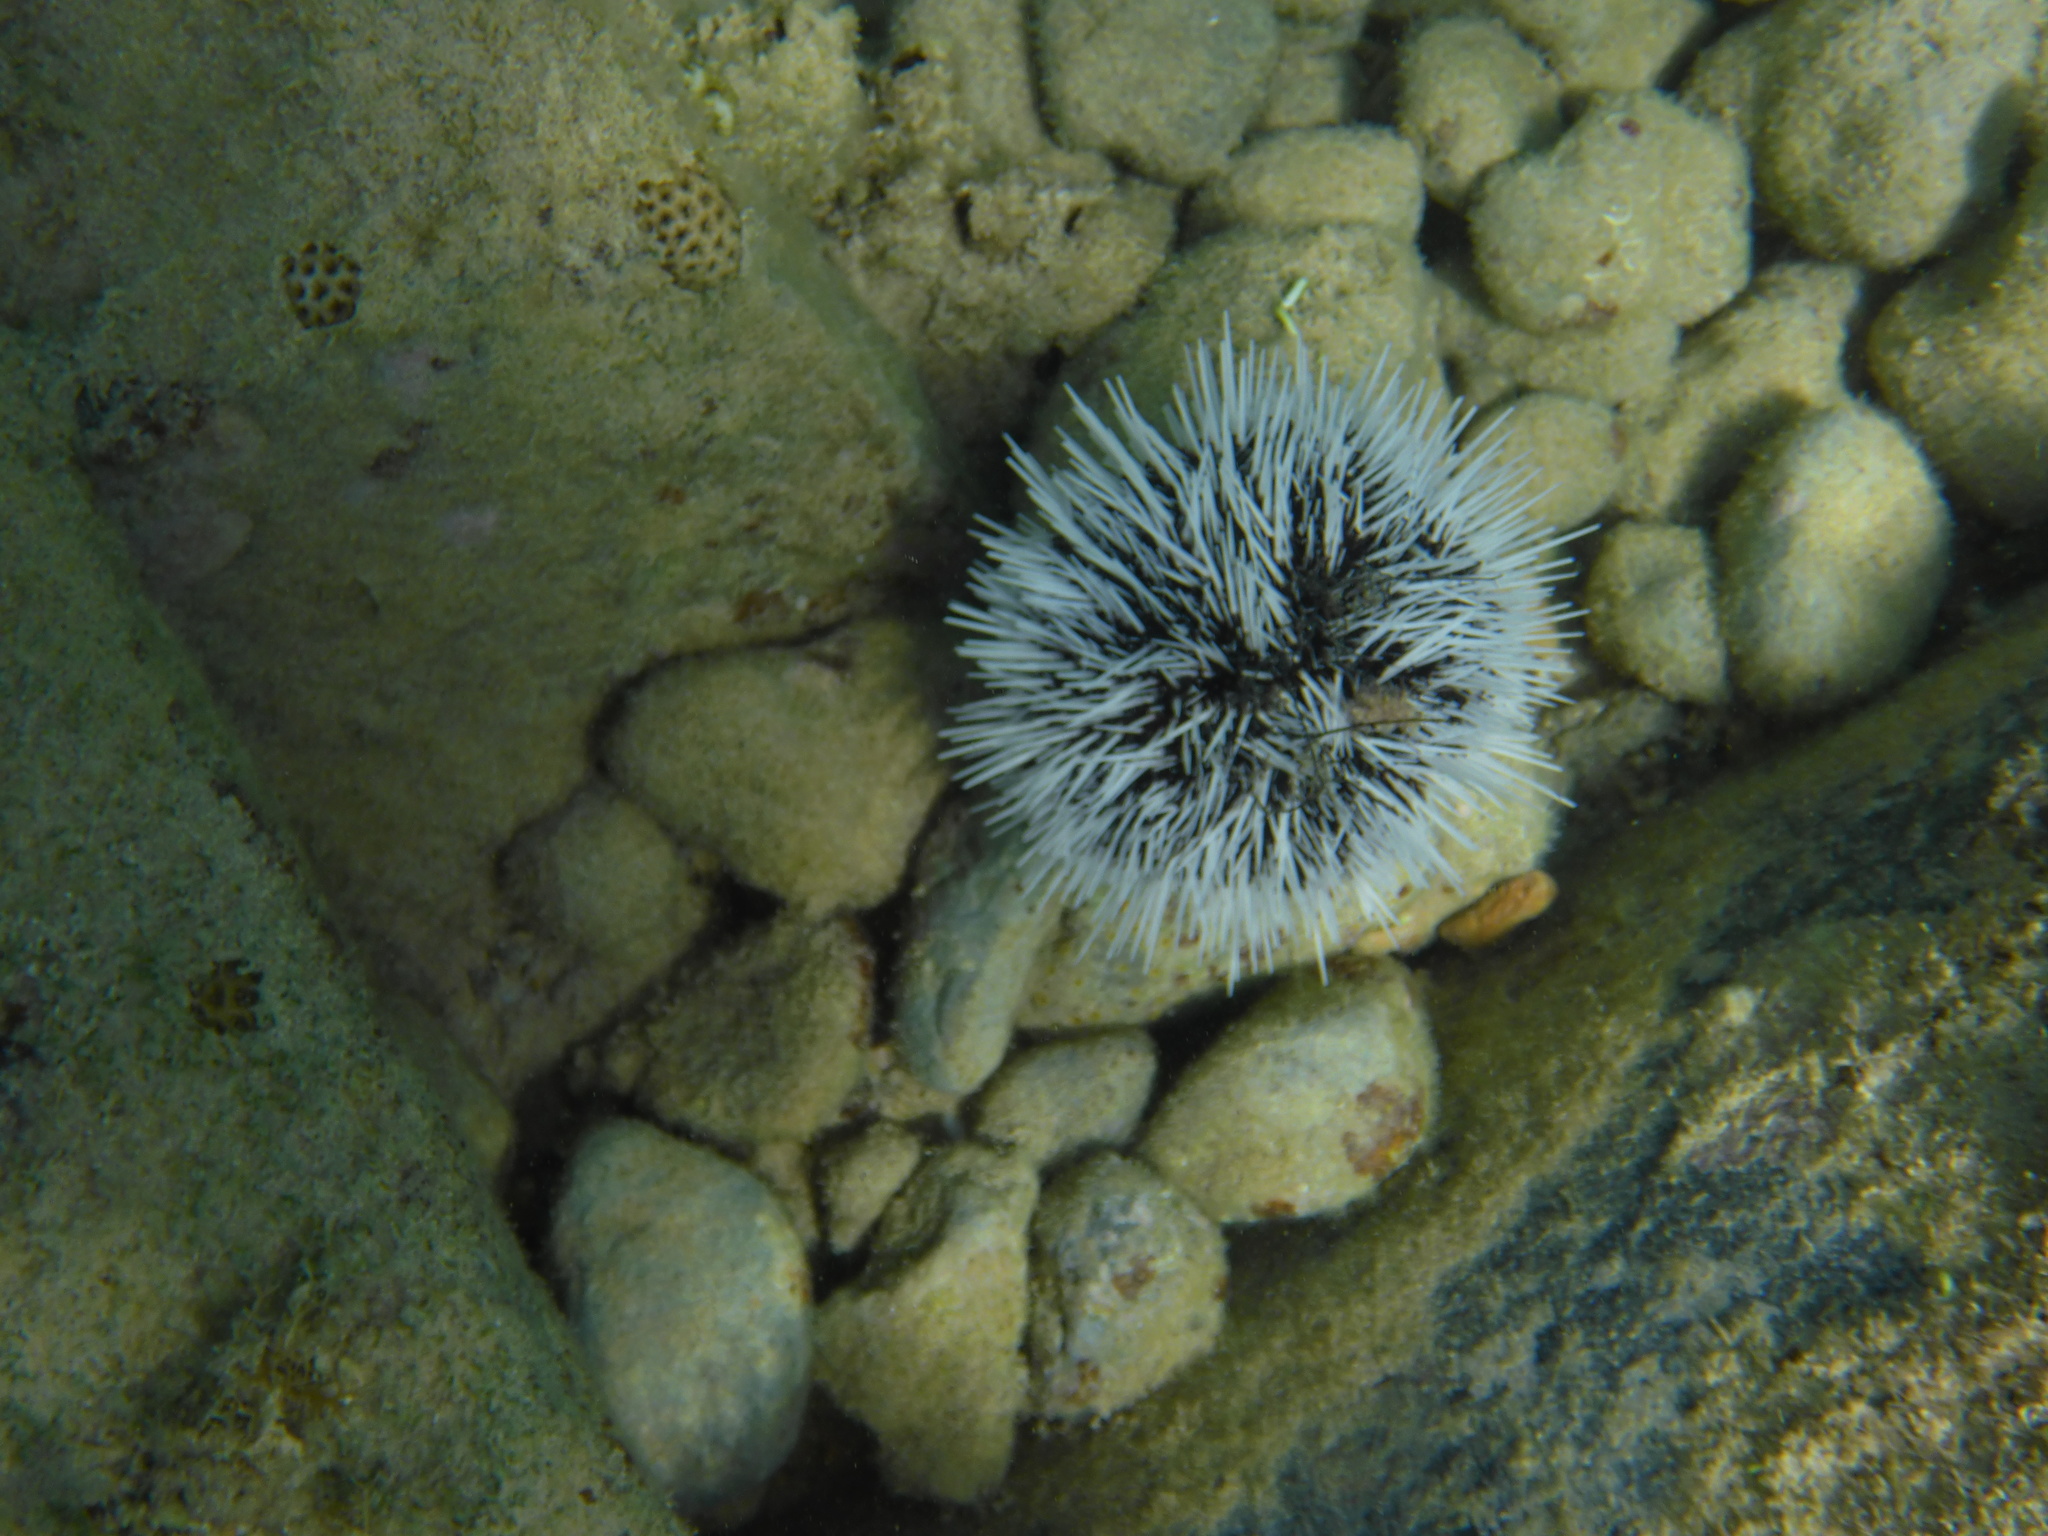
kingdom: Animalia
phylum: Echinodermata
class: Echinoidea
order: Camarodonta
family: Toxopneustidae
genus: Tripneustes
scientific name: Tripneustes ventricosus
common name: West indian sea egg
